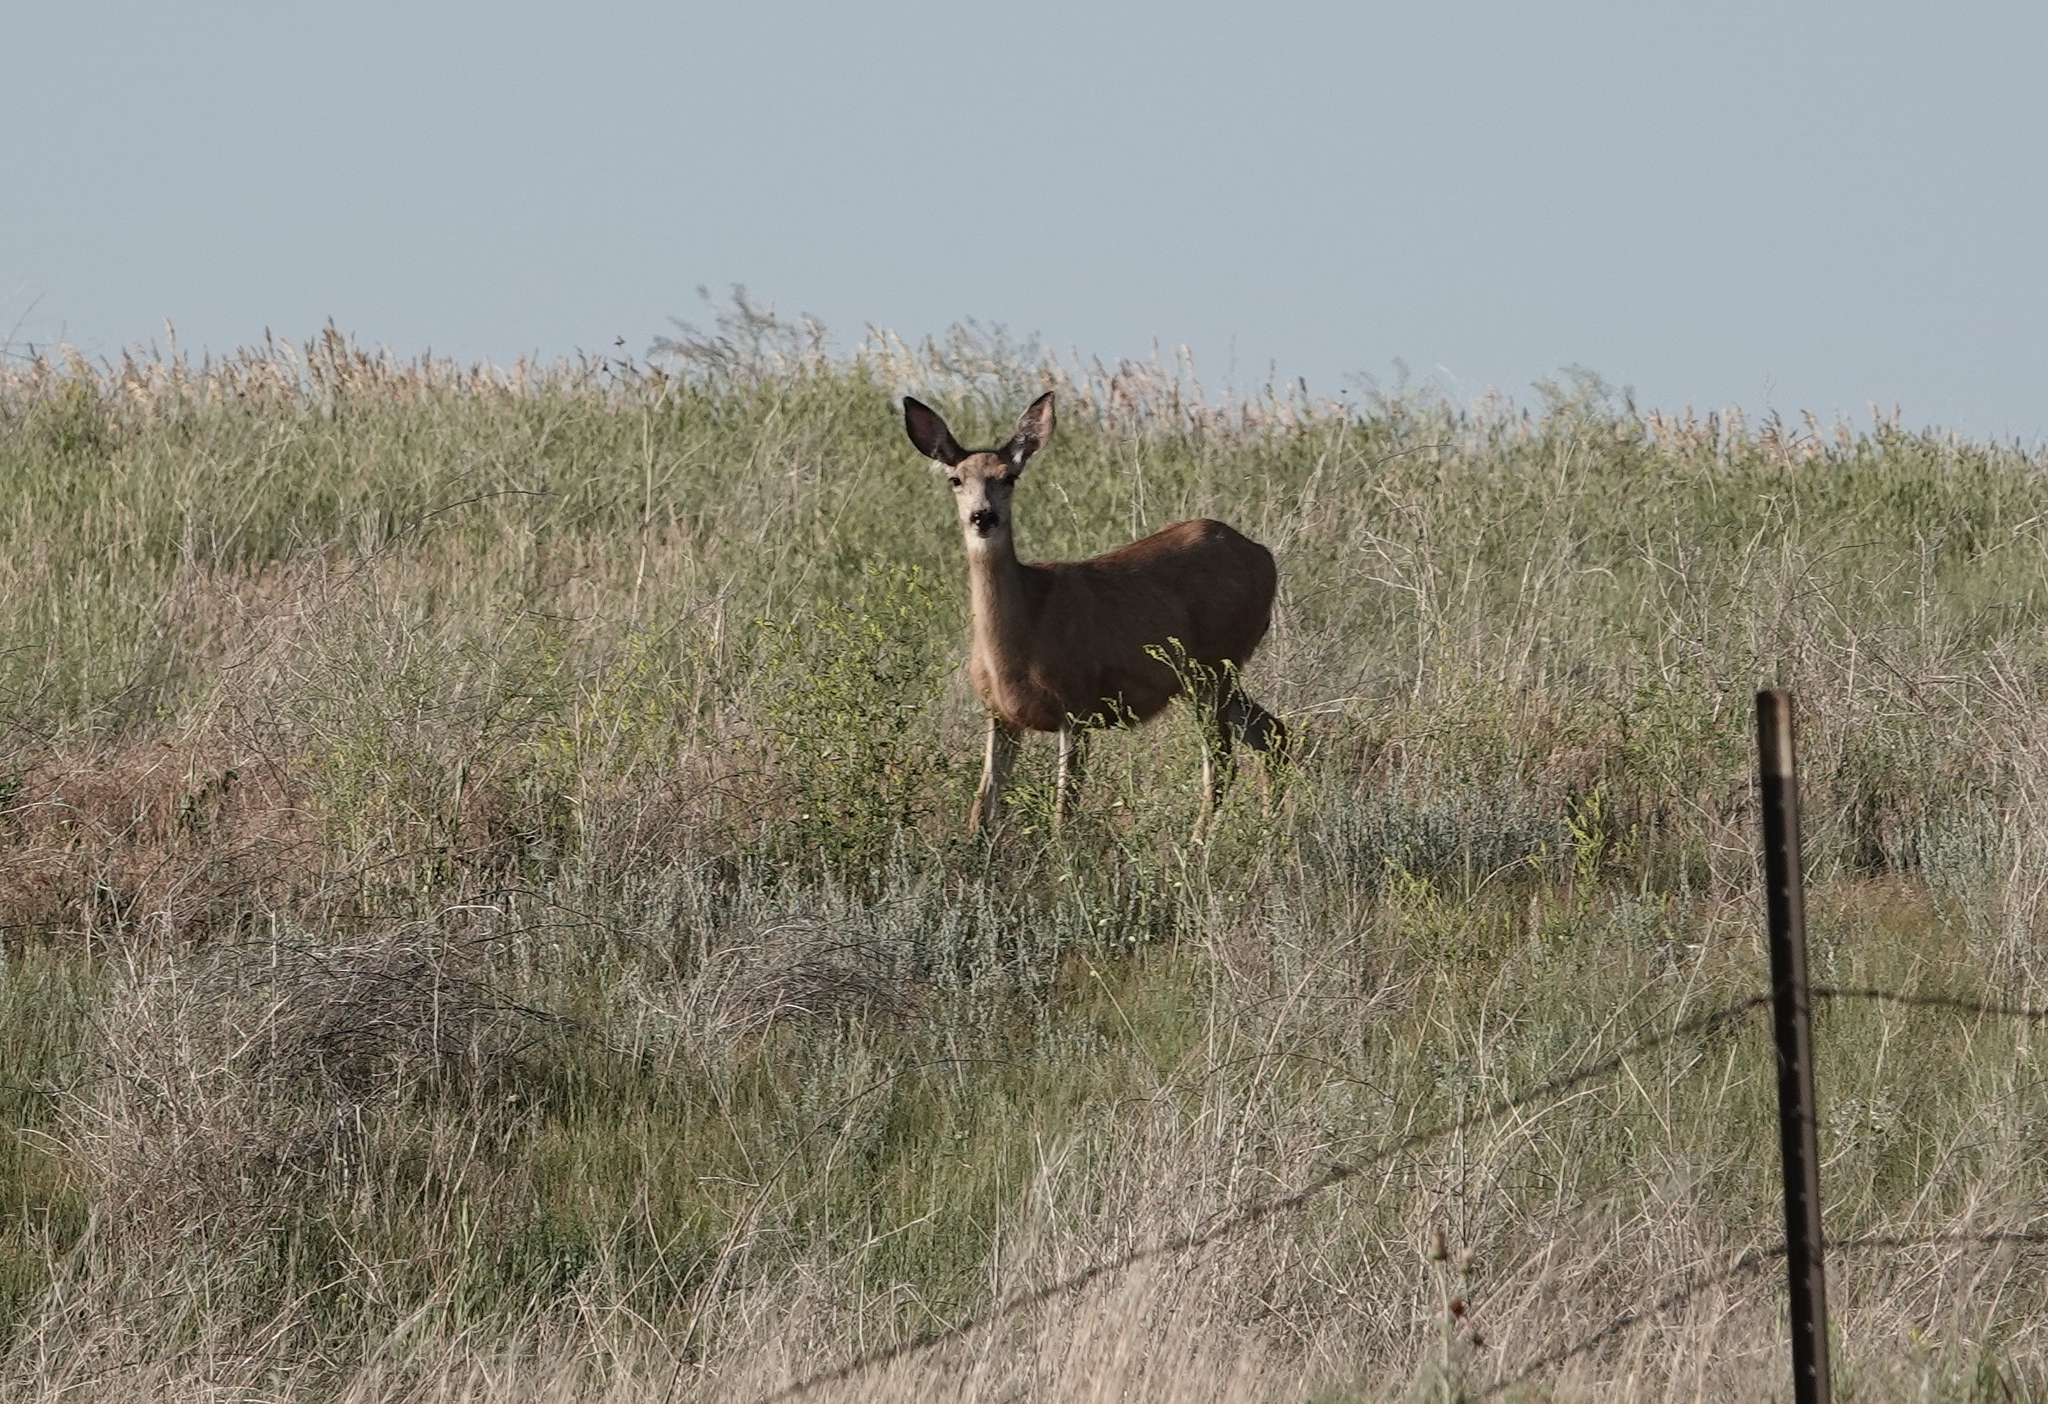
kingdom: Animalia
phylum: Chordata
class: Mammalia
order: Artiodactyla
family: Cervidae
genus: Odocoileus
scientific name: Odocoileus hemionus
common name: Mule deer
